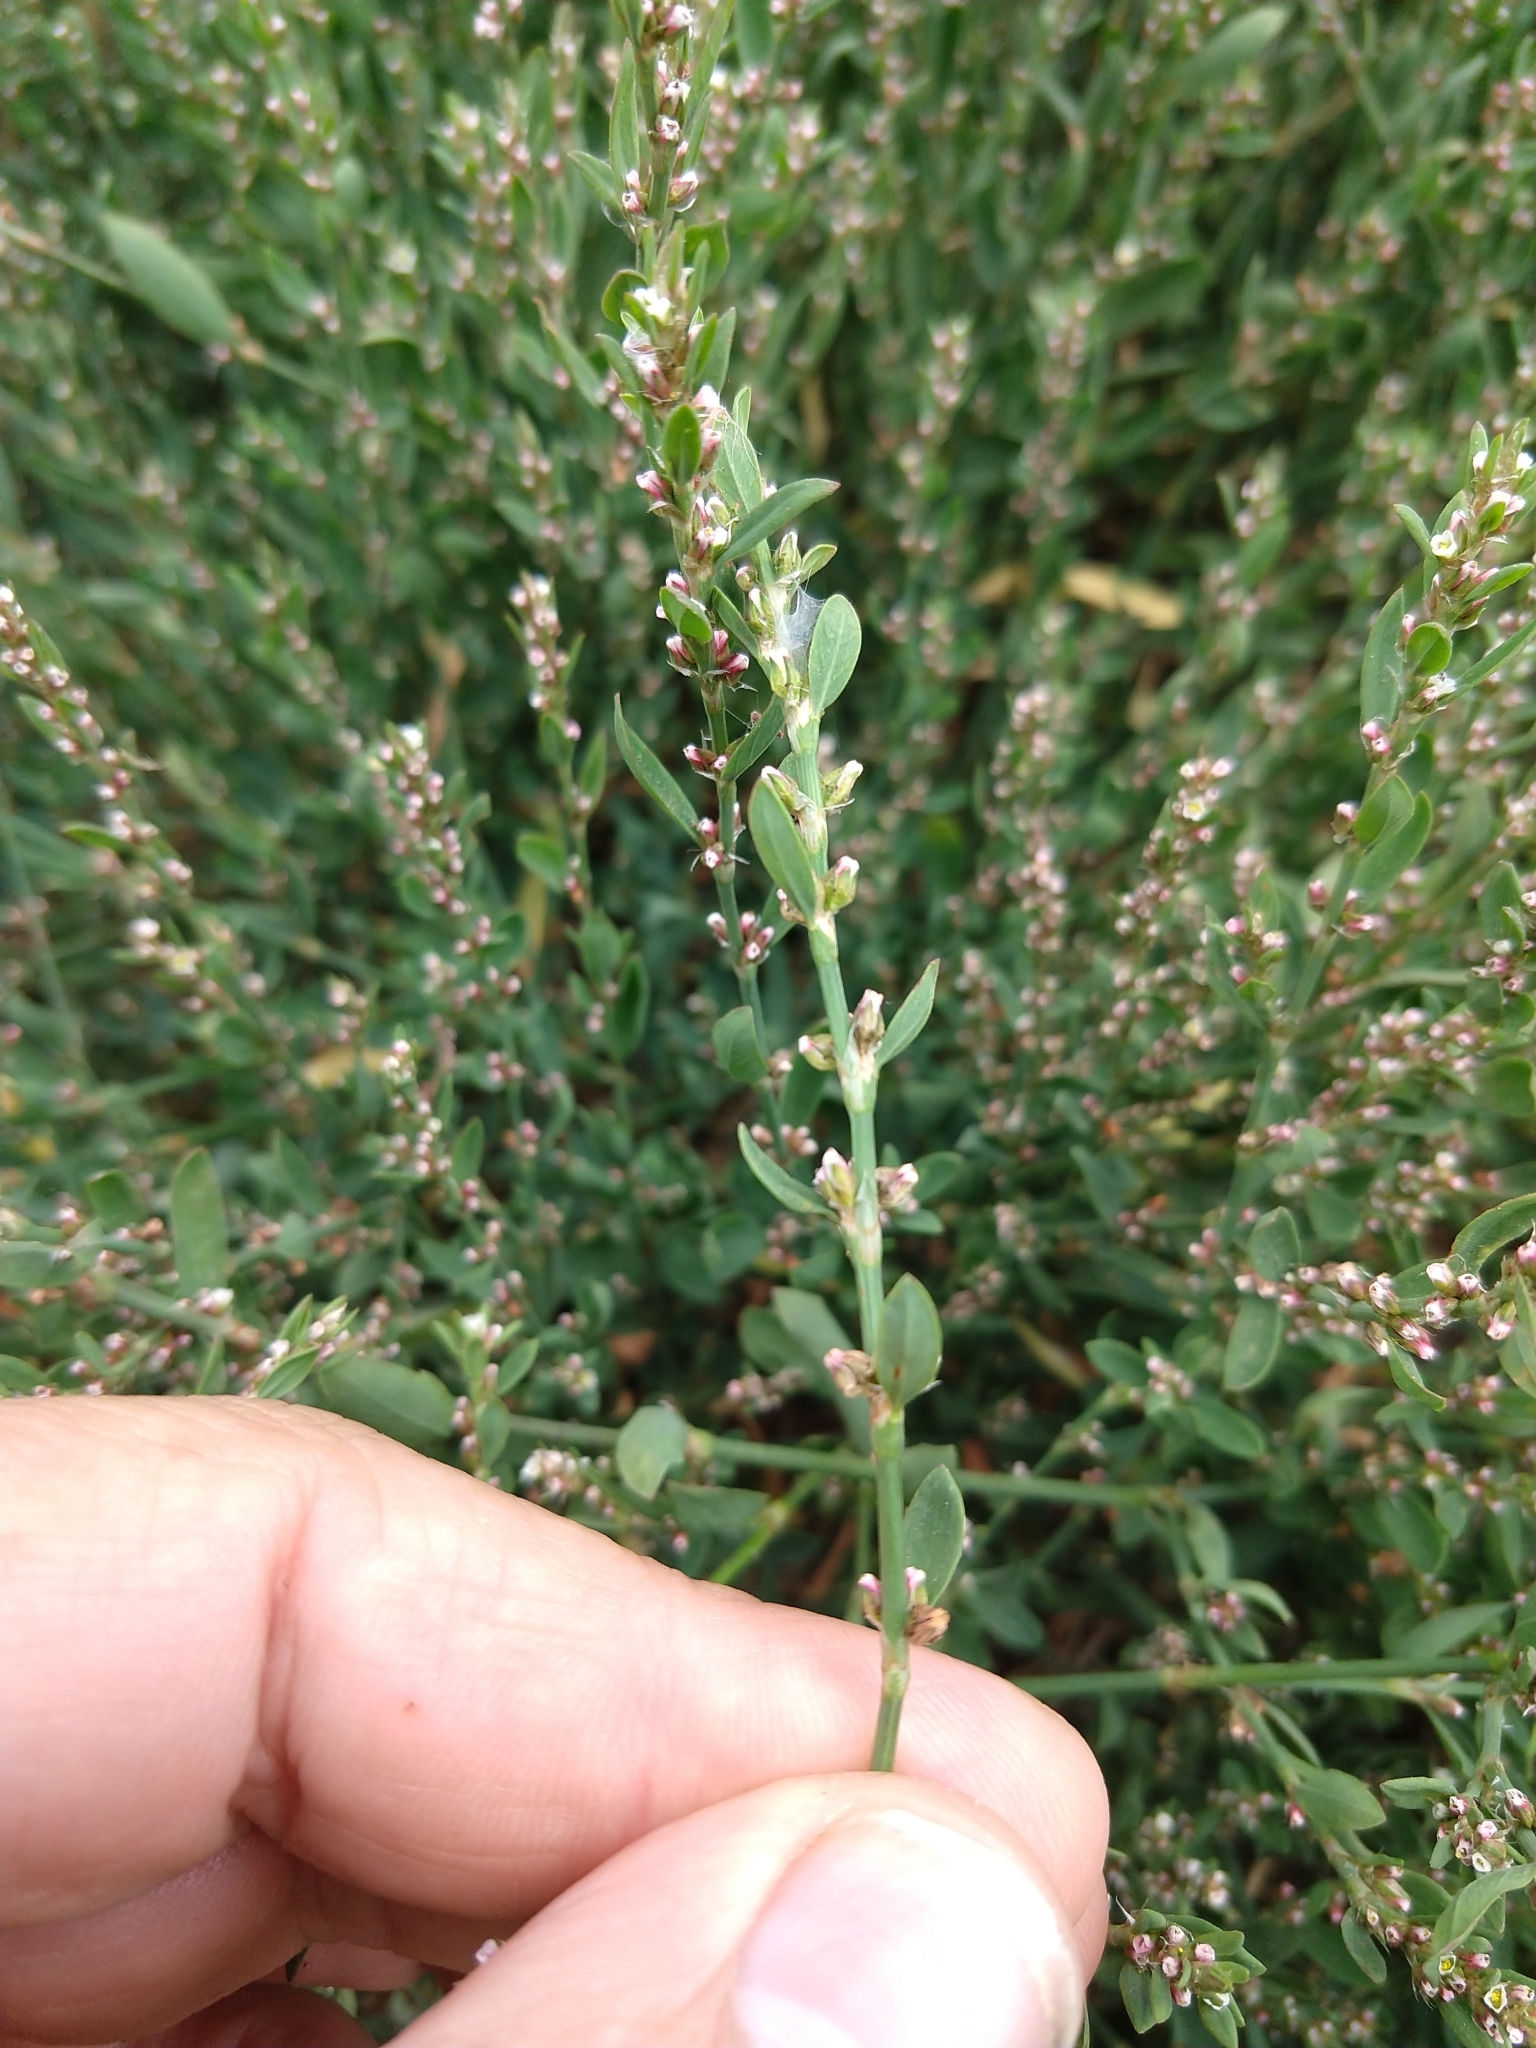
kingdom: Plantae
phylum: Tracheophyta
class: Magnoliopsida
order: Caryophyllales
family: Polygonaceae
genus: Polygonum
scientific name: Polygonum aviculare
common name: Prostrate knotweed
